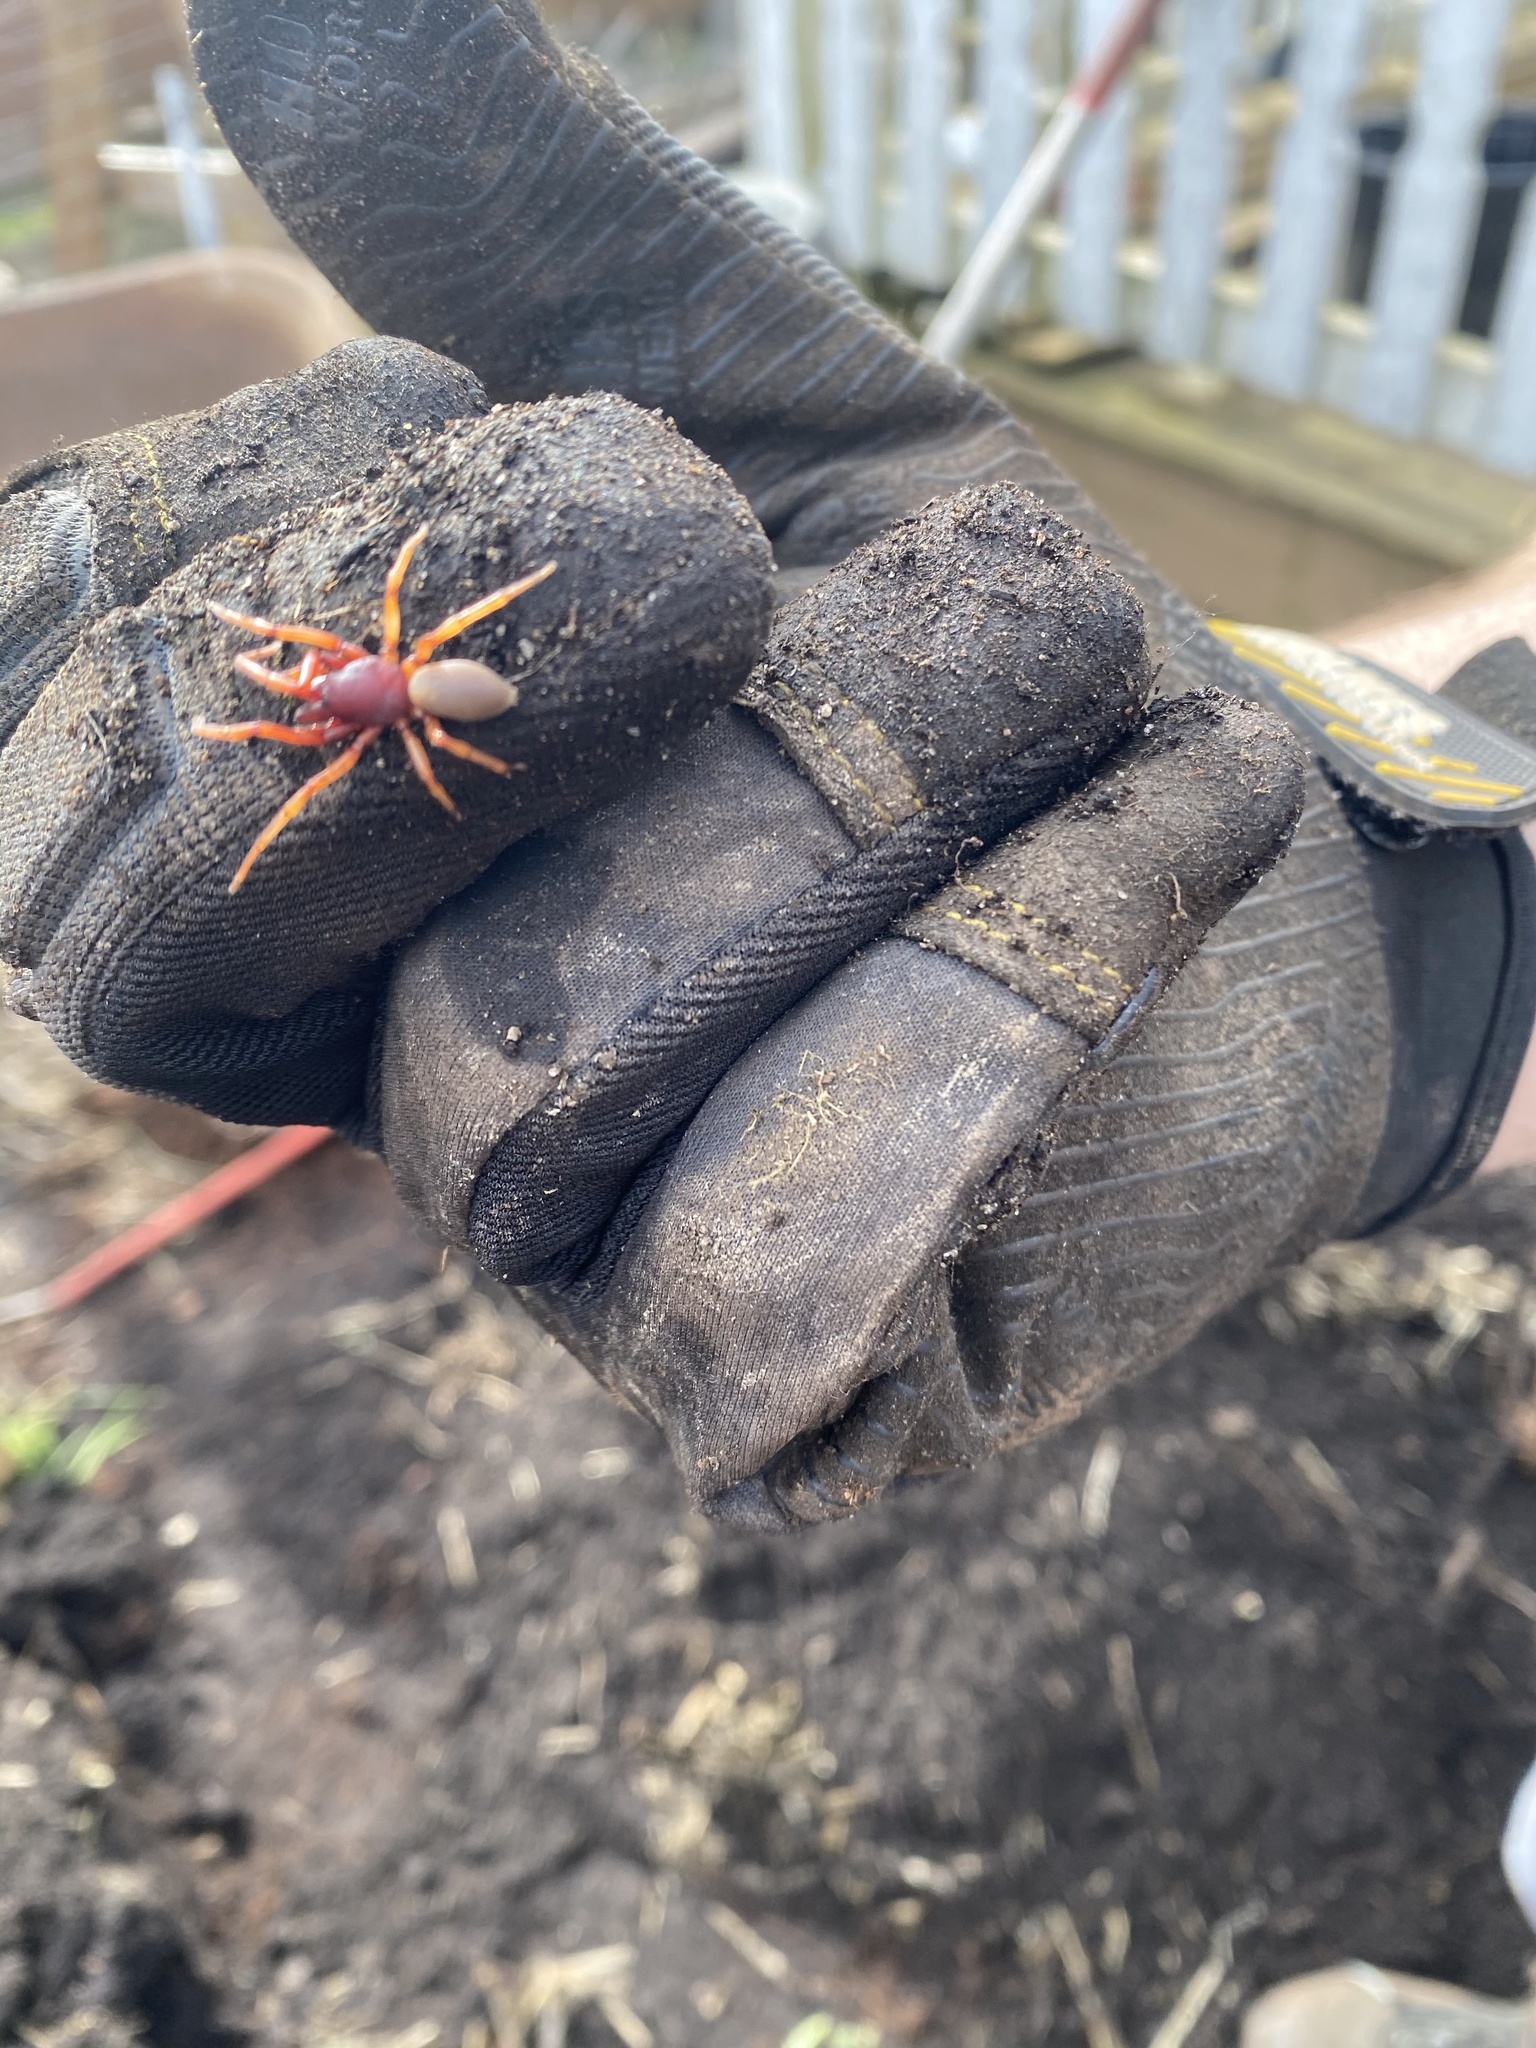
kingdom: Animalia
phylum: Arthropoda
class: Arachnida
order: Araneae
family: Dysderidae
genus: Dysdera
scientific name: Dysdera crocata
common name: Woodlouse spider
